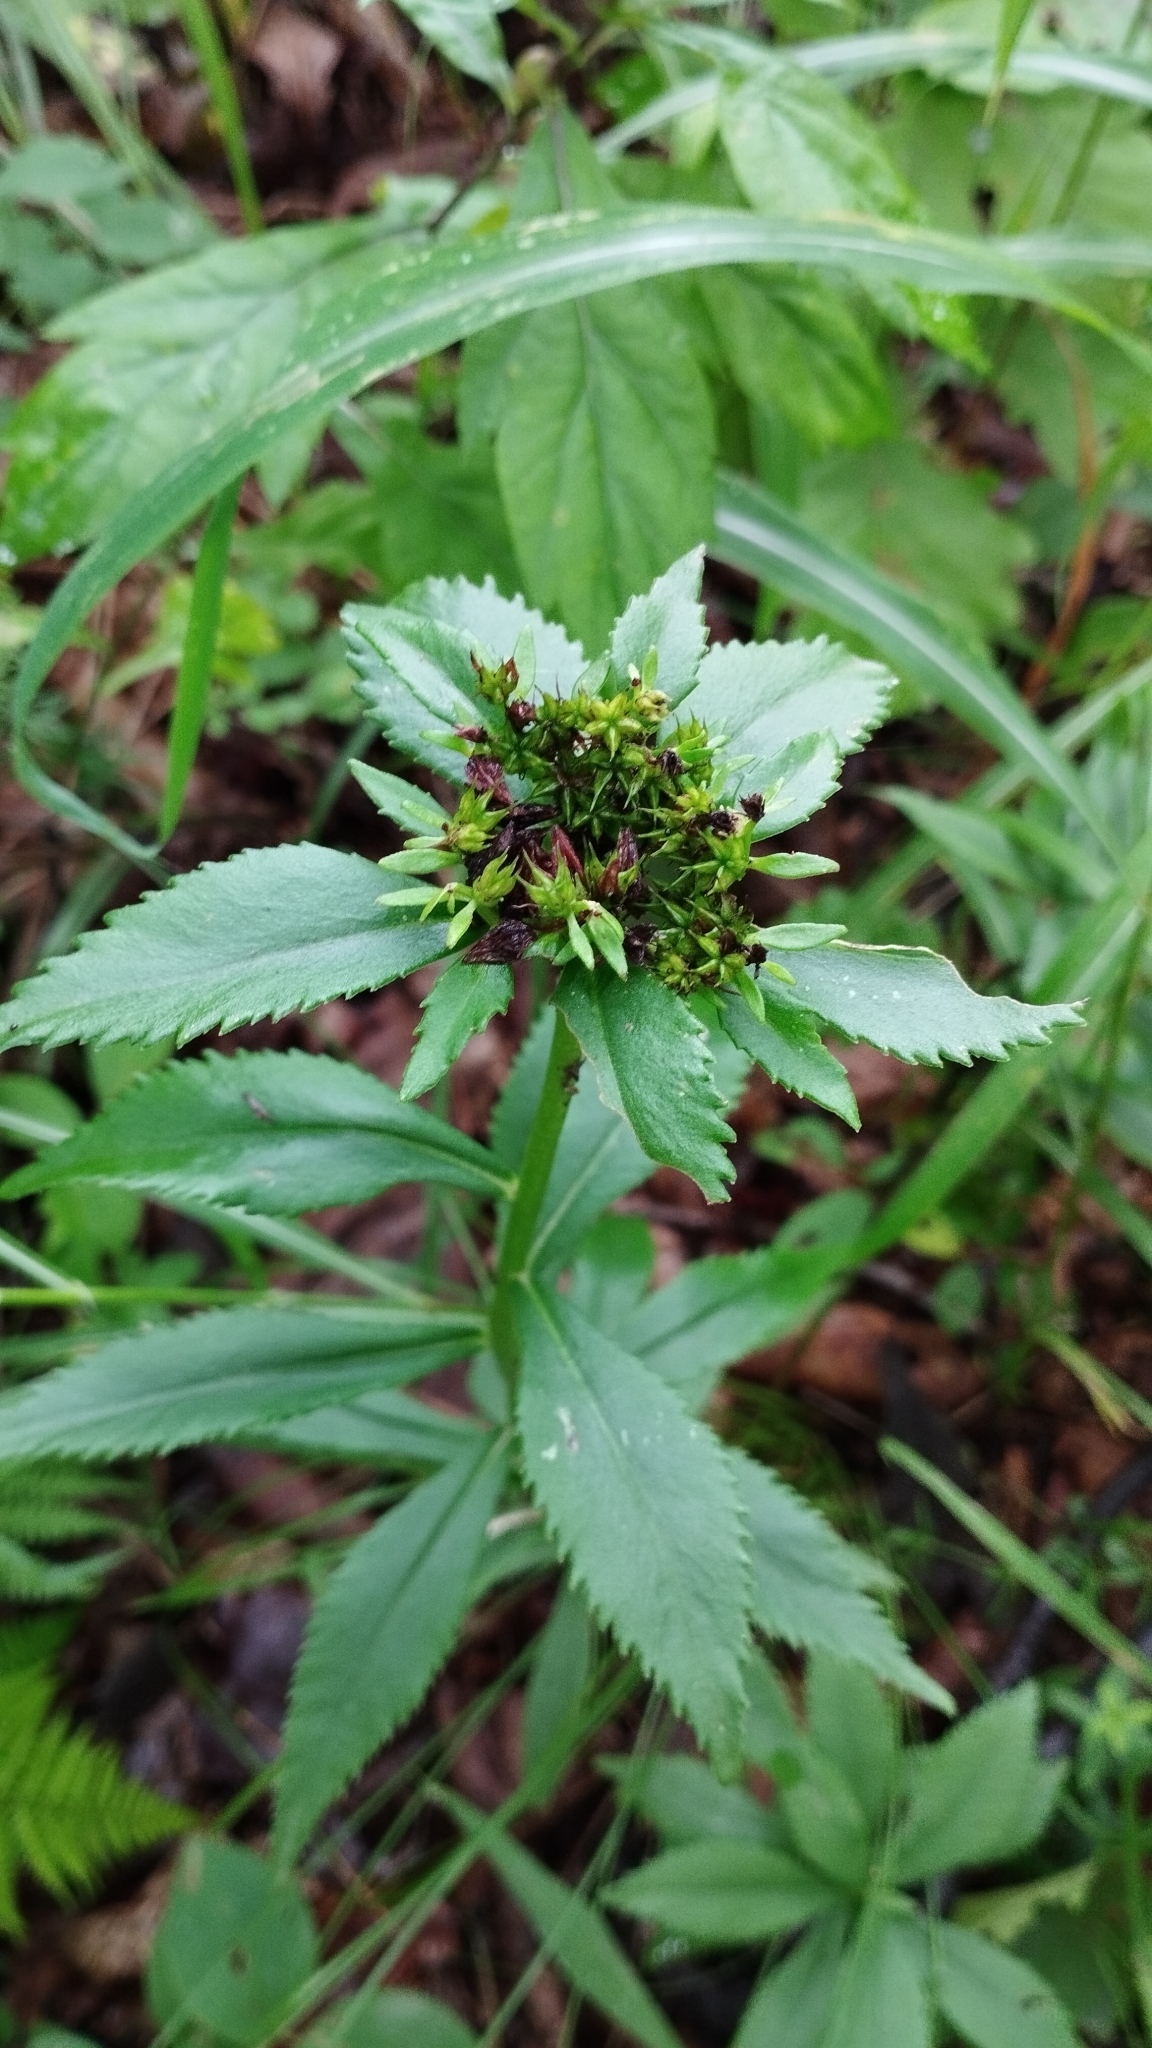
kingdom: Plantae
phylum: Tracheophyta
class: Magnoliopsida
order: Saxifragales
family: Crassulaceae
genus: Phedimus
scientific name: Phedimus aizoon
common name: Orpin aizoon
